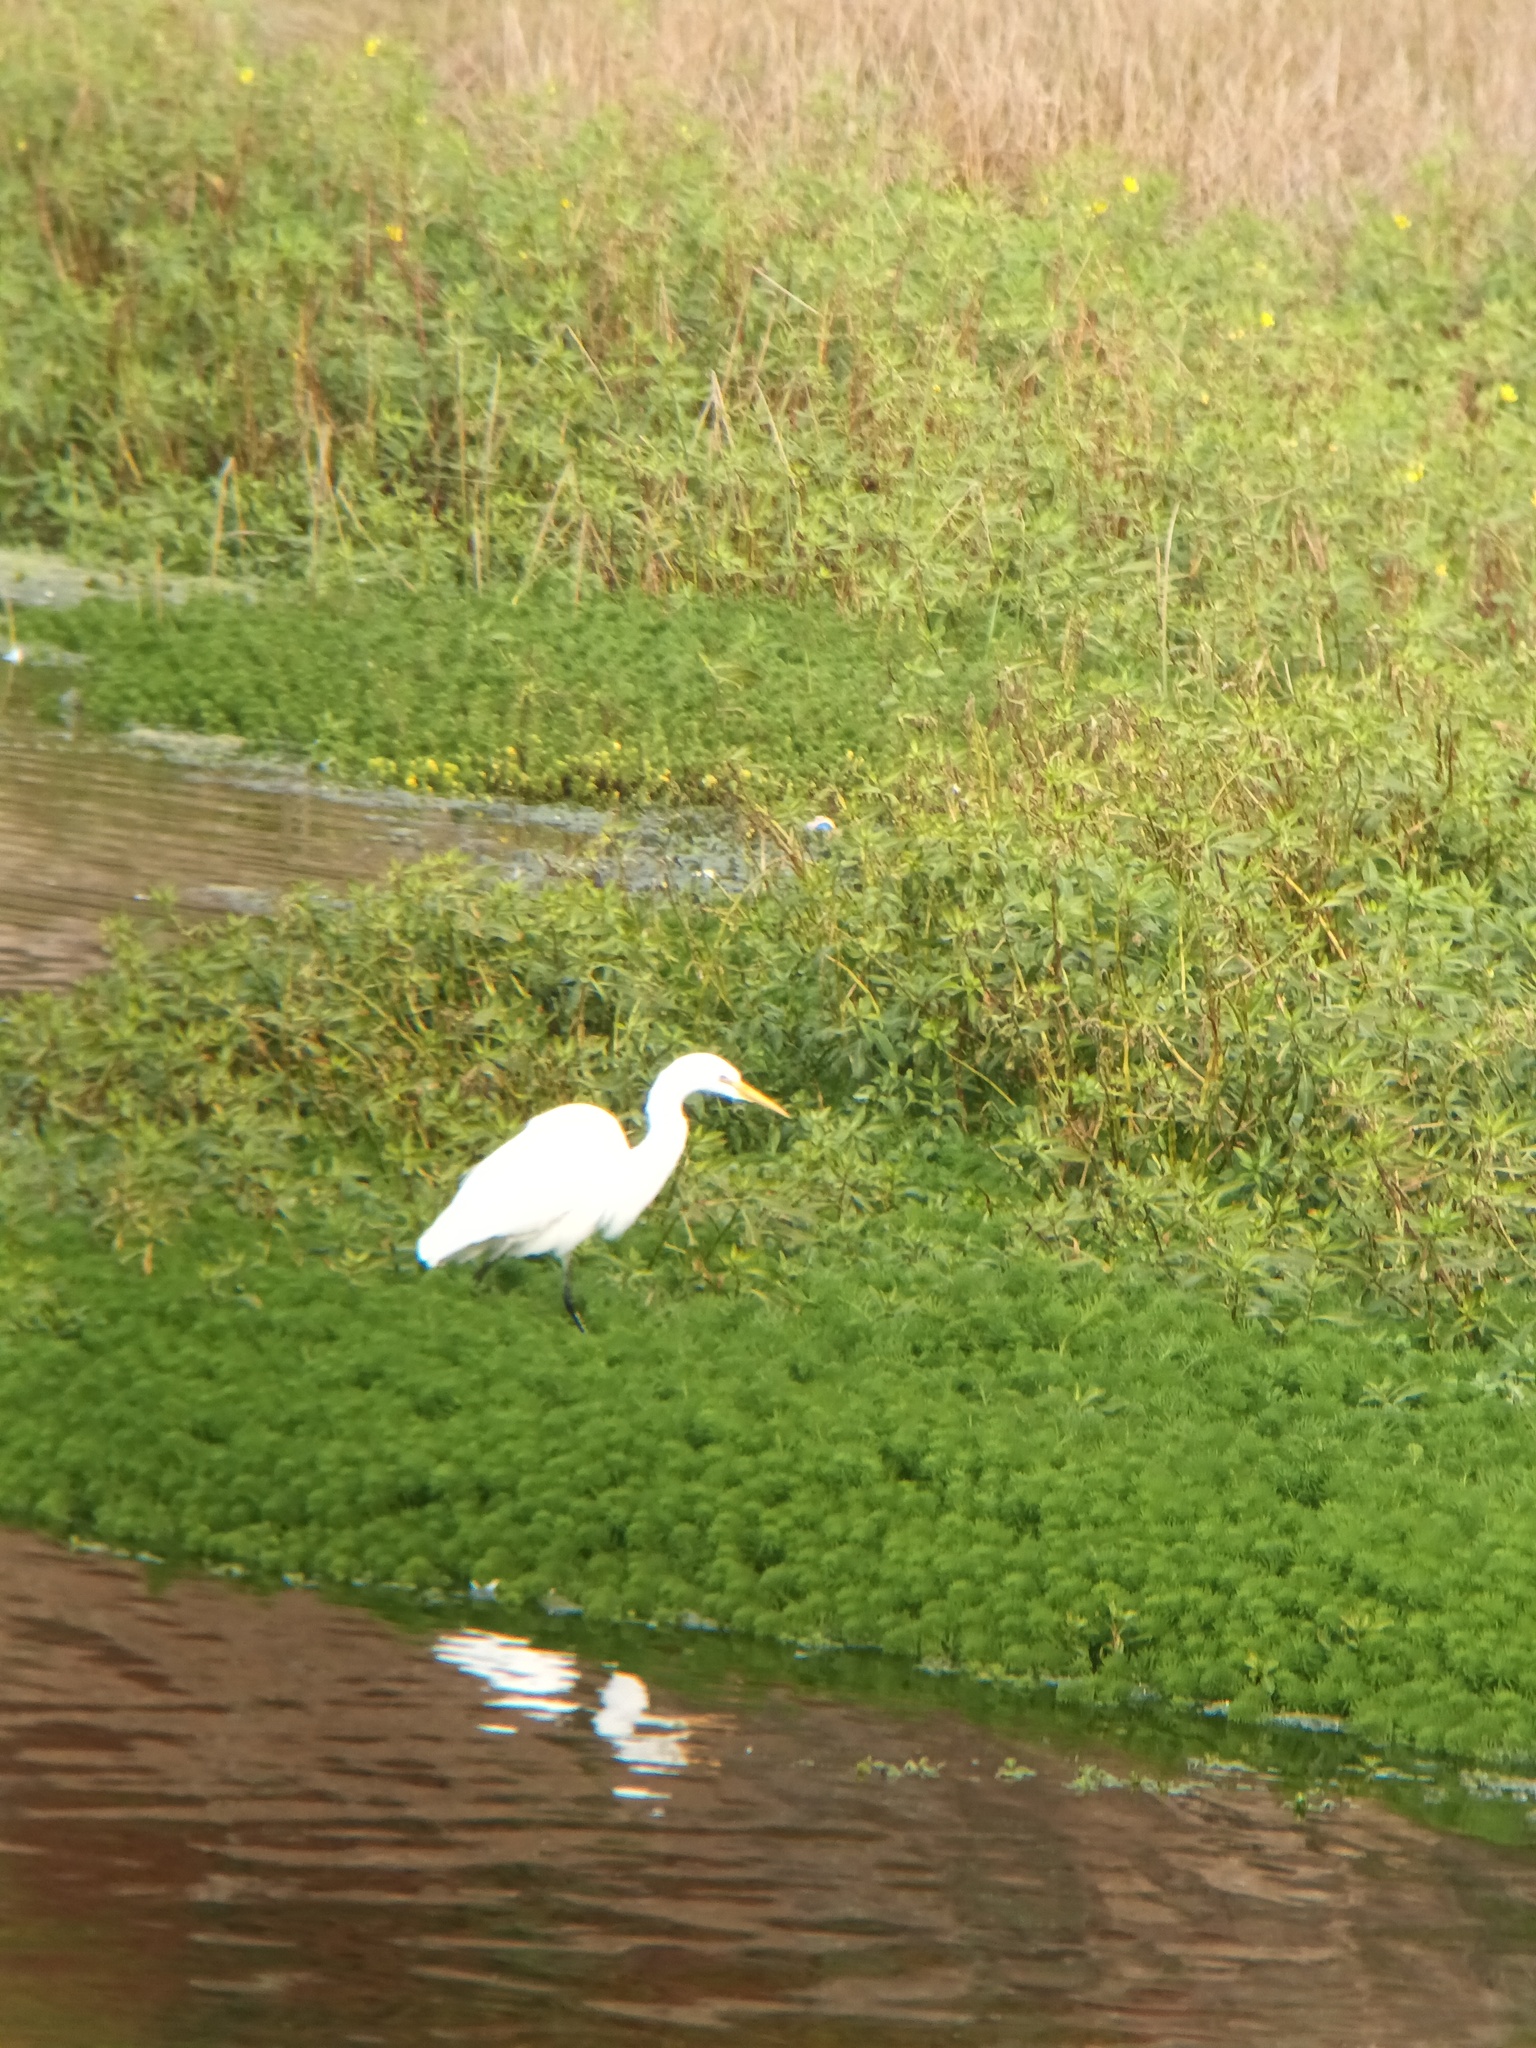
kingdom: Animalia
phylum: Chordata
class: Aves
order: Pelecaniformes
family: Ardeidae
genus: Ardea
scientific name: Ardea alba
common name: Great egret
